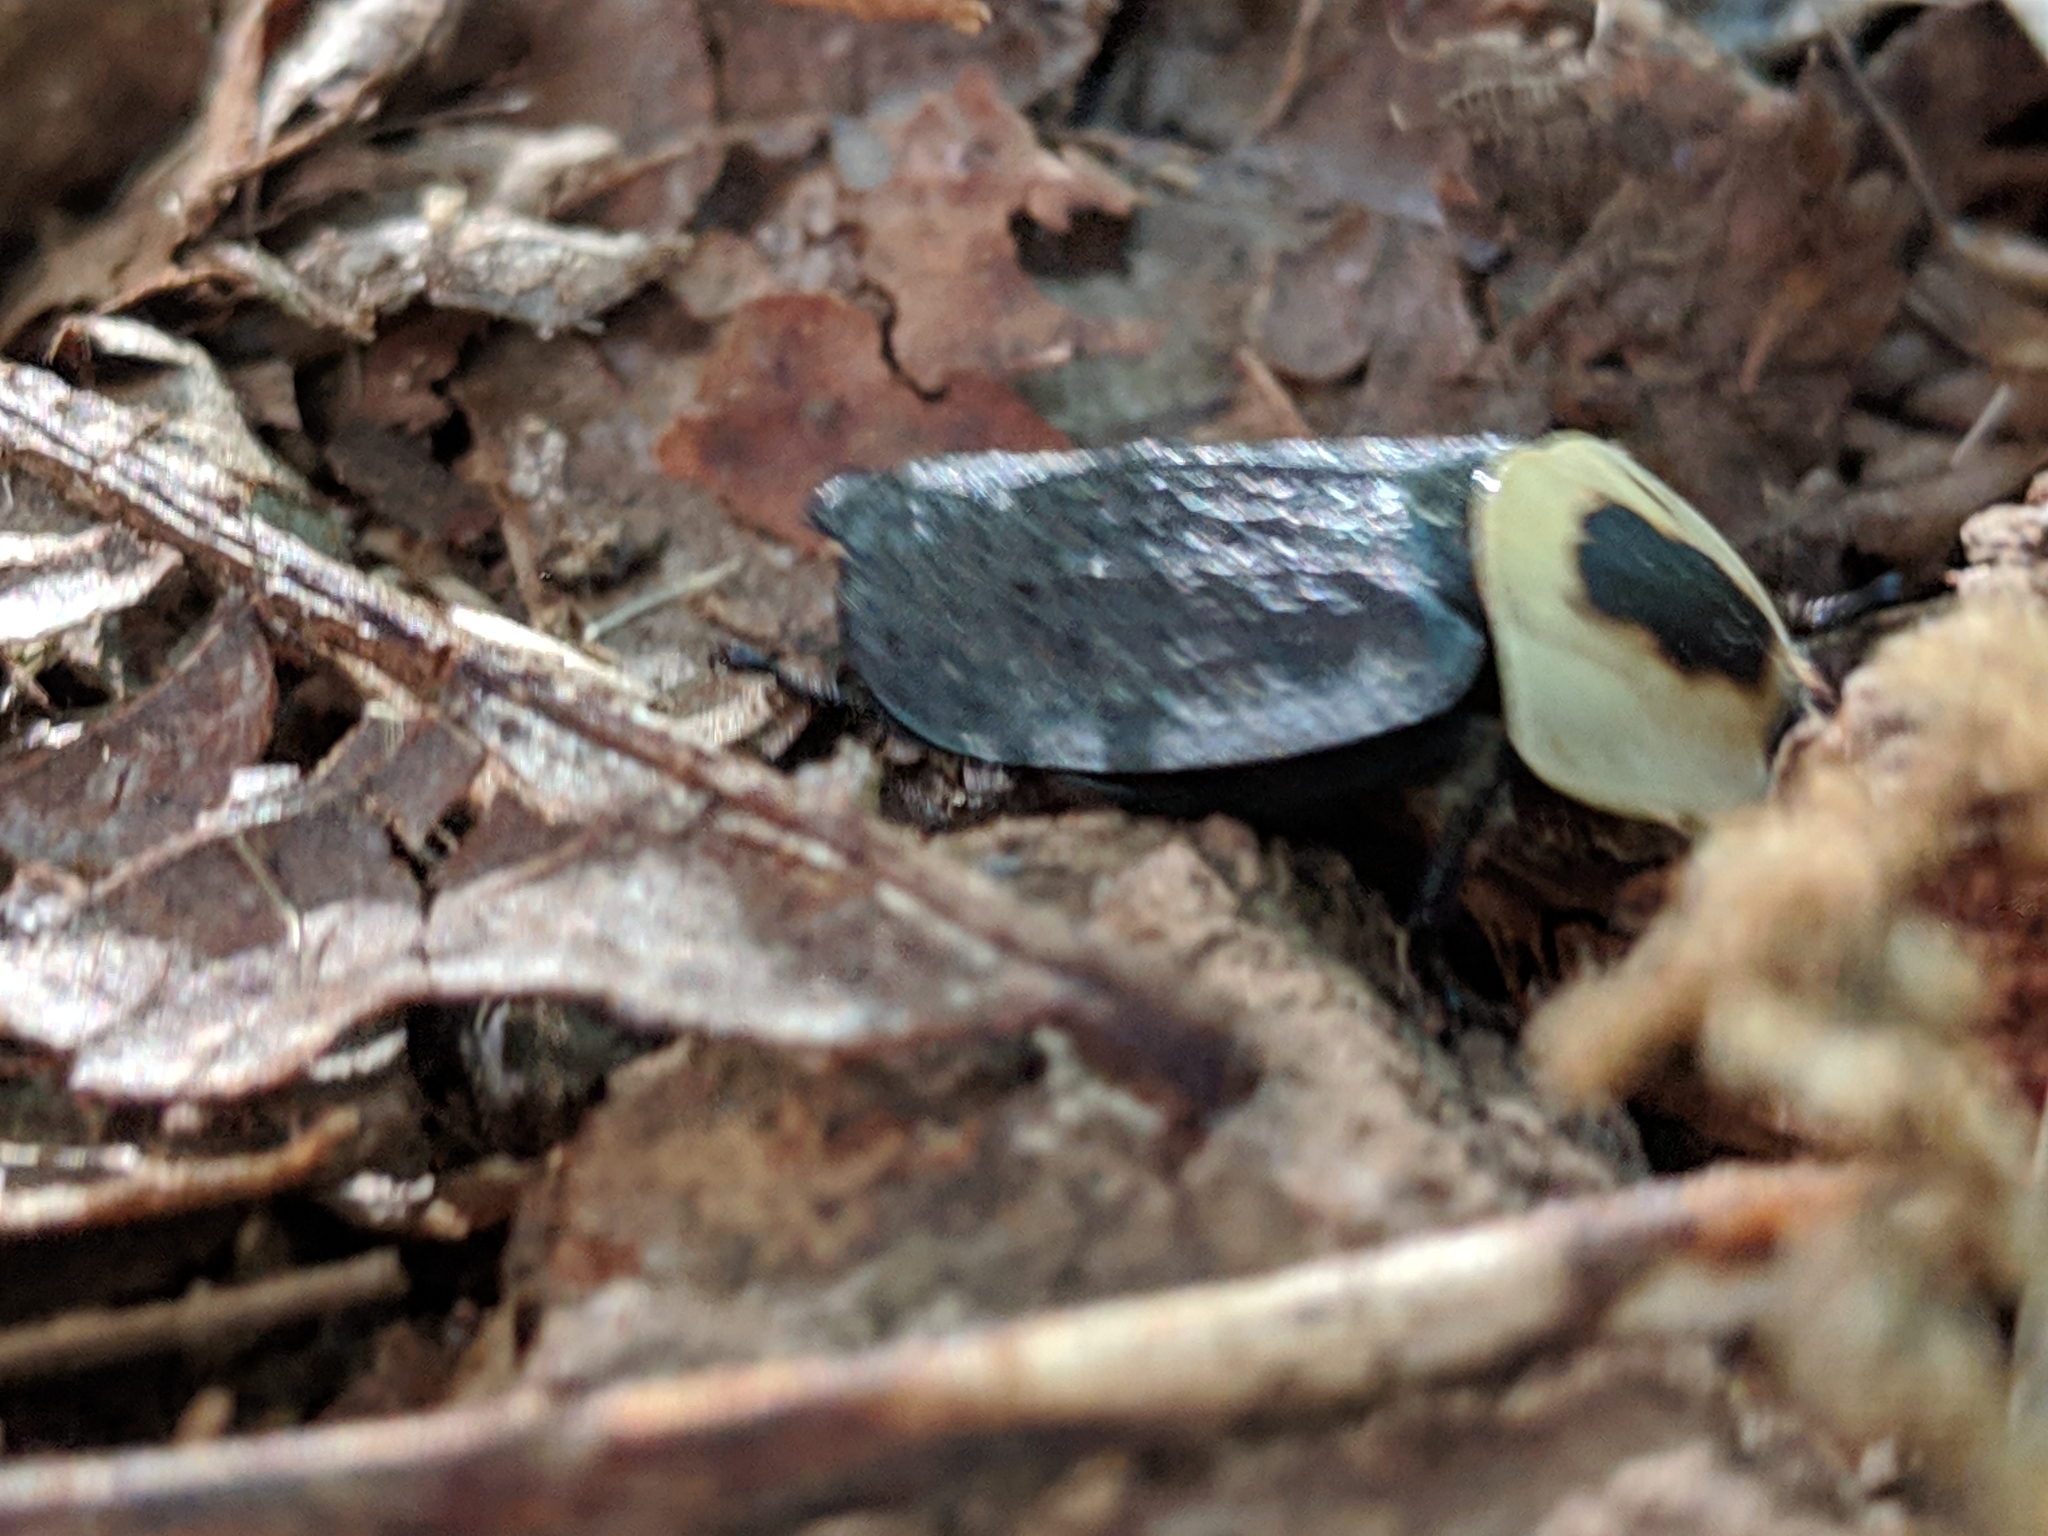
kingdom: Animalia
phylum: Arthropoda
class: Insecta
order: Coleoptera
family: Staphylinidae
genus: Necrophila
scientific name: Necrophila americana
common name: American carrion beetle
